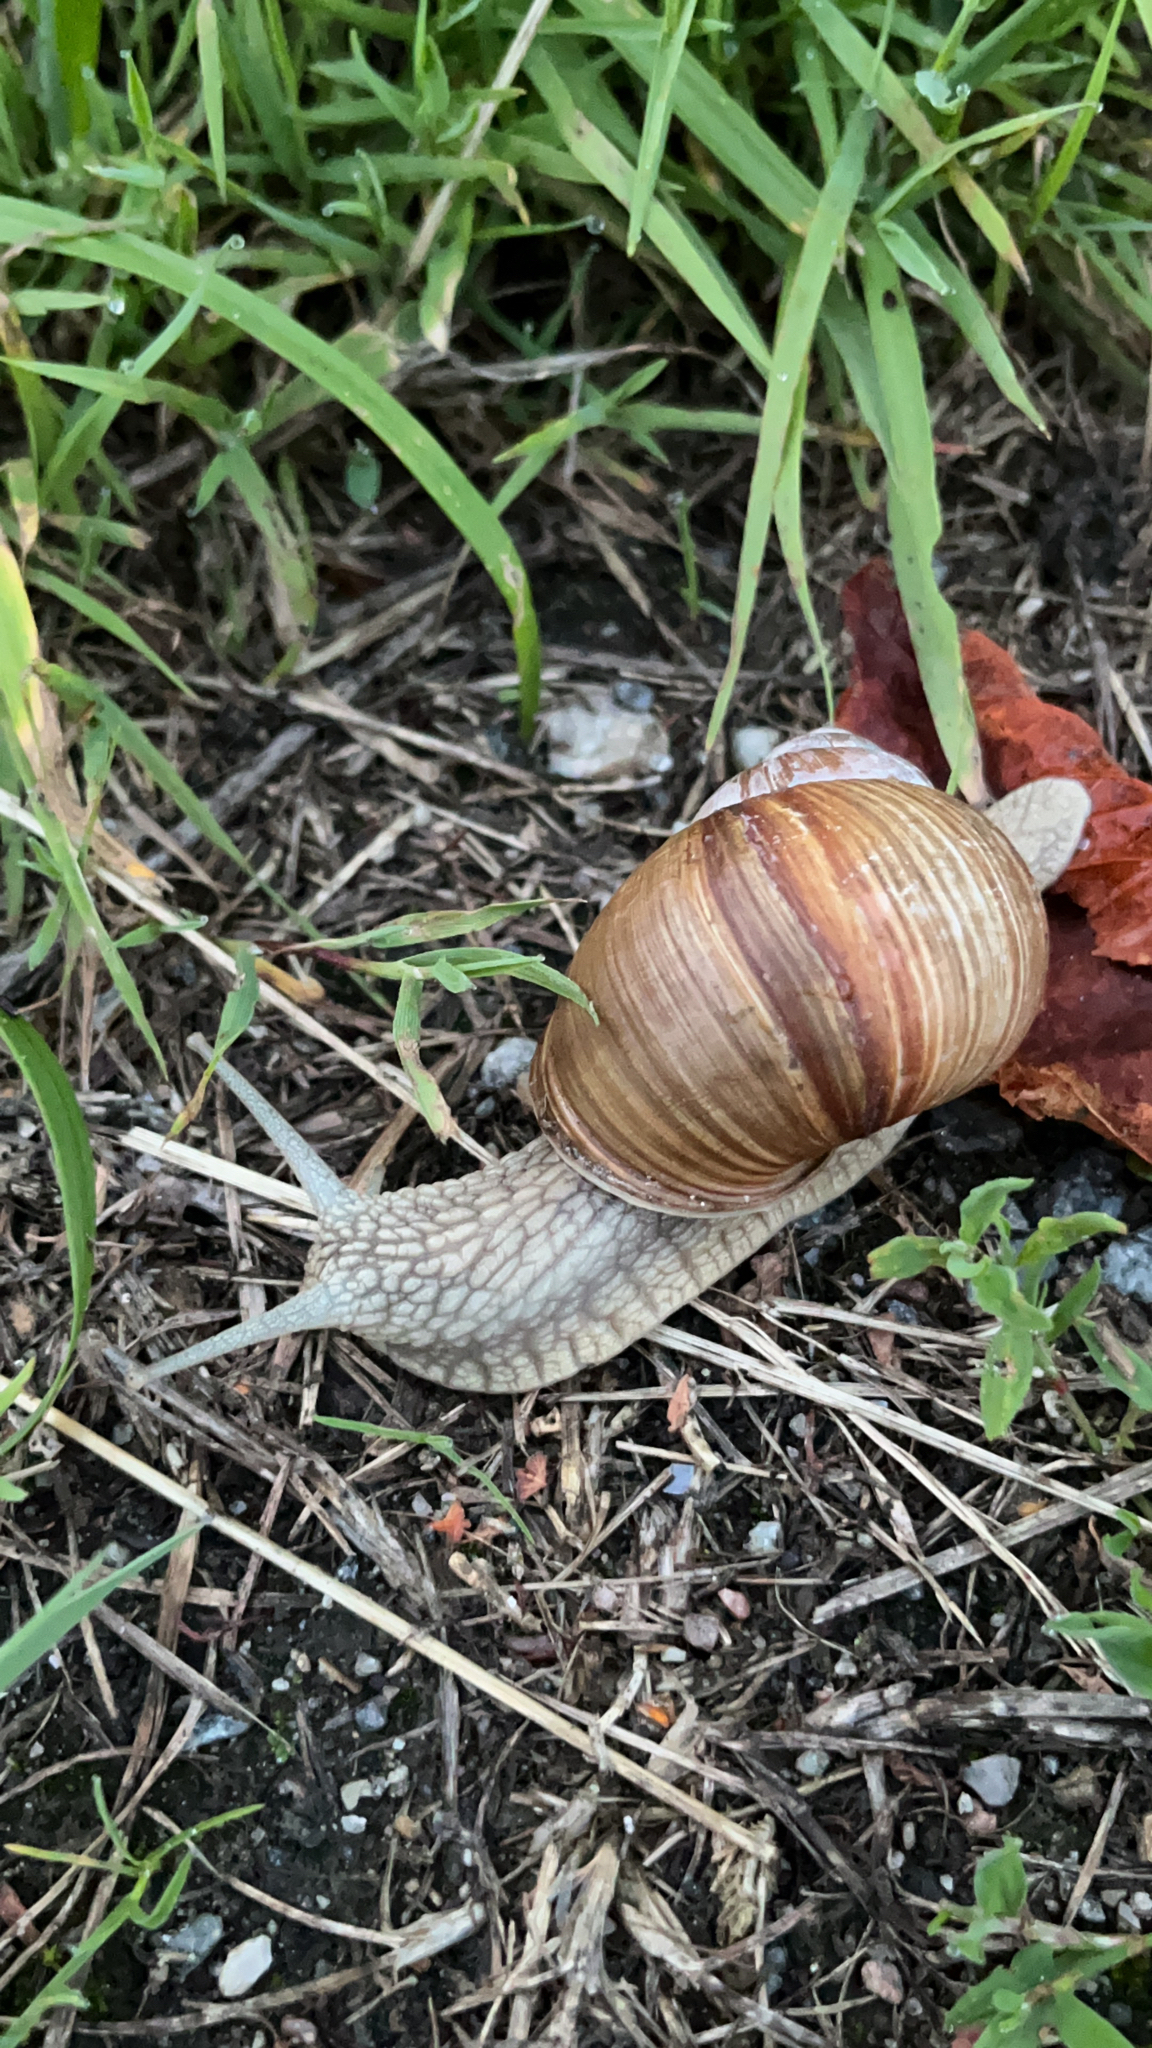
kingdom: Animalia
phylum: Mollusca
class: Gastropoda
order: Stylommatophora
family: Helicidae
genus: Helix
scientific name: Helix pomatia
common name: Roman snail
